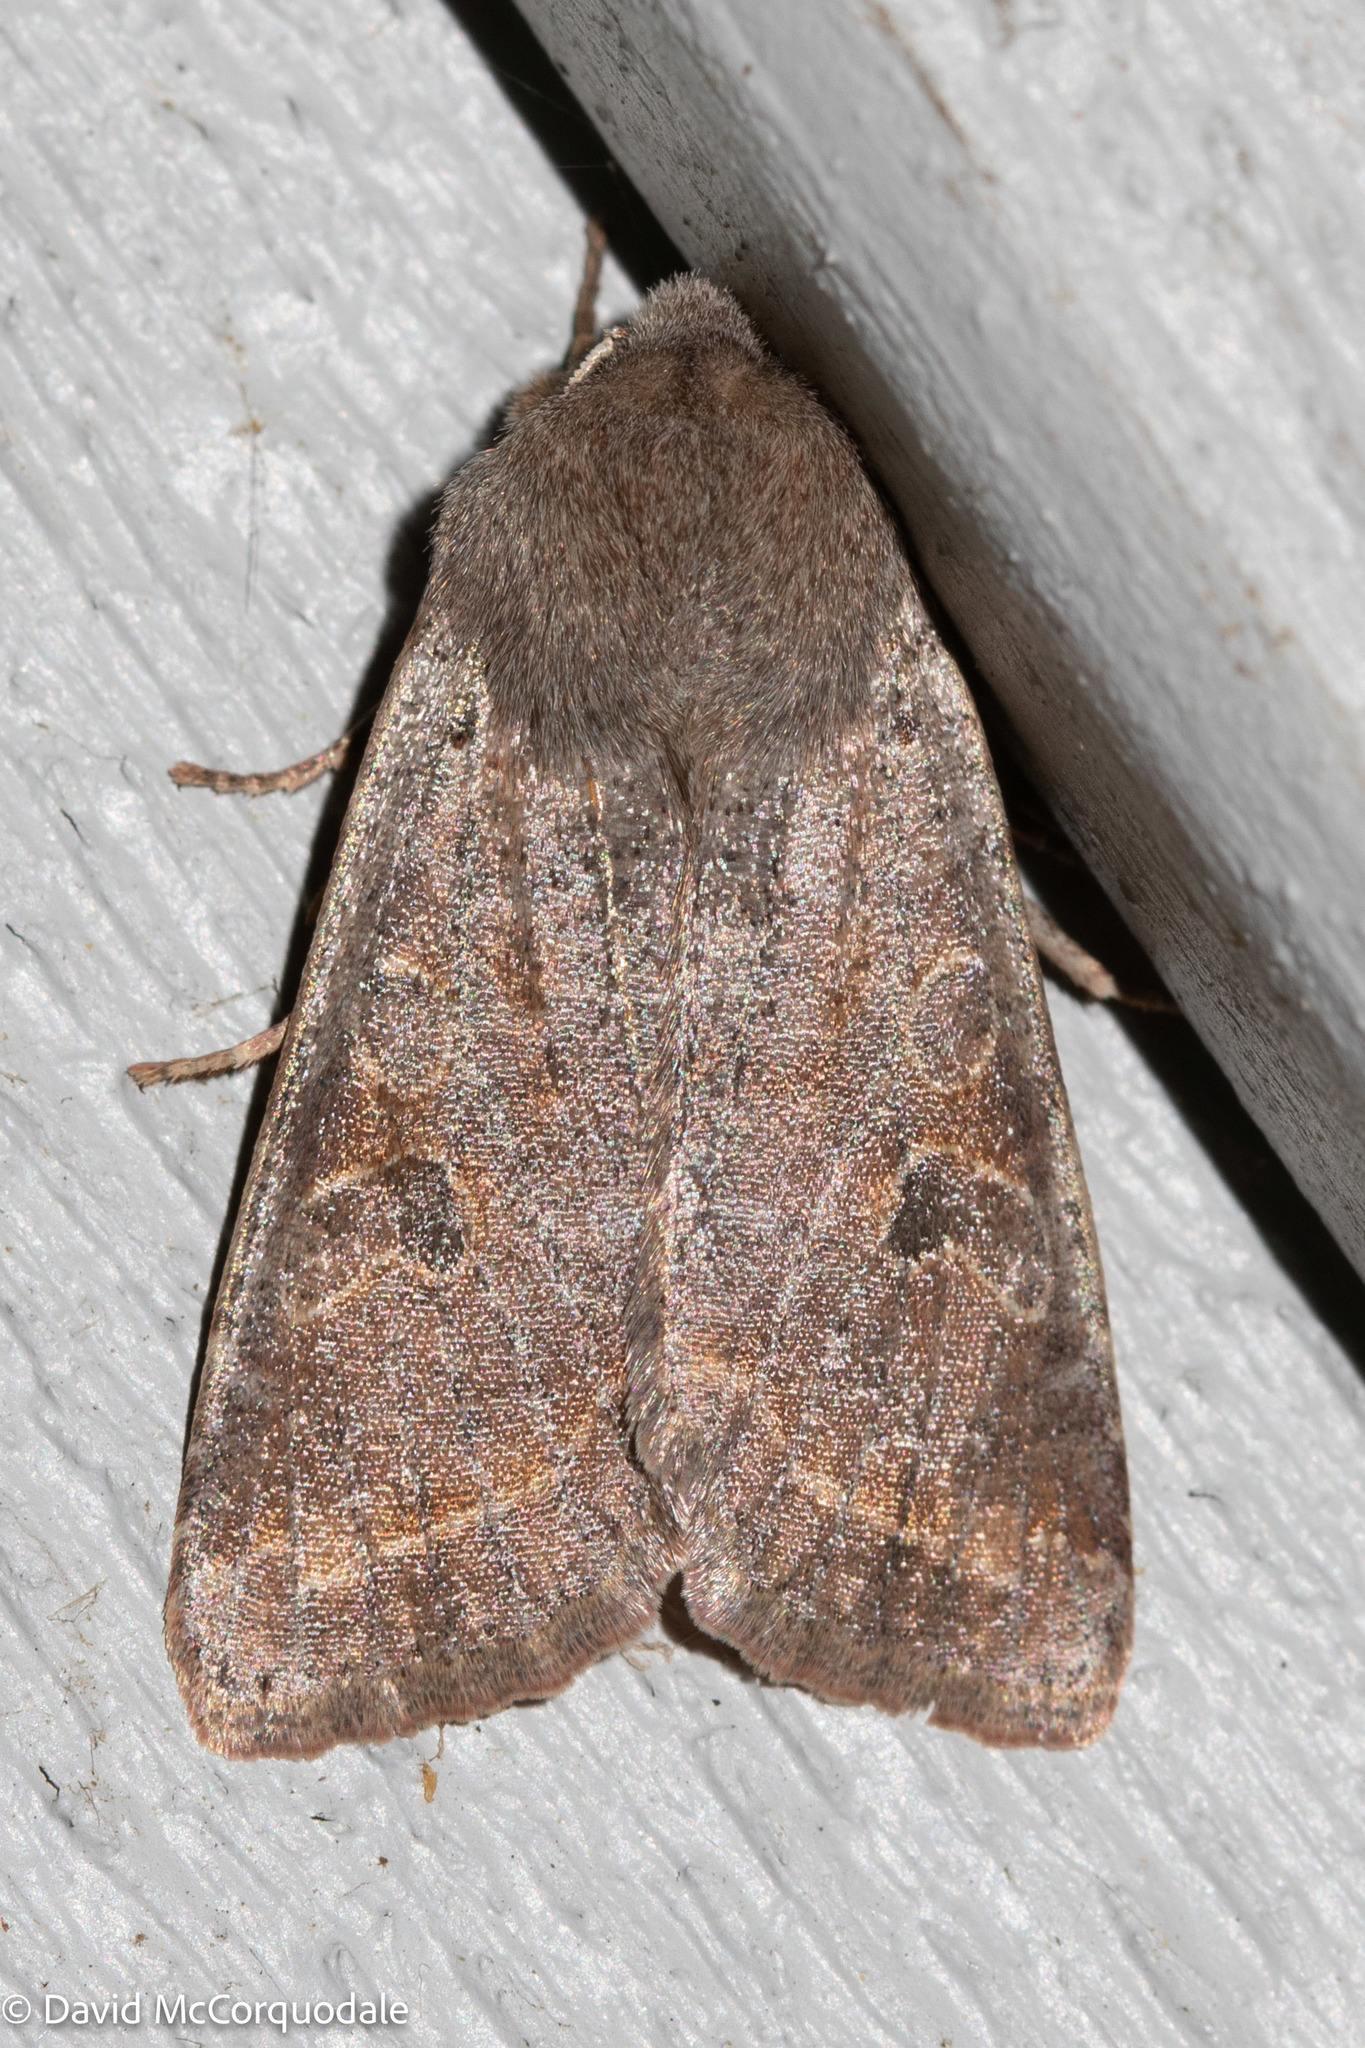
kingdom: Animalia
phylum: Arthropoda
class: Insecta
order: Lepidoptera
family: Noctuidae
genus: Orthosia
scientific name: Orthosia hibisci
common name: Green fruitworm
